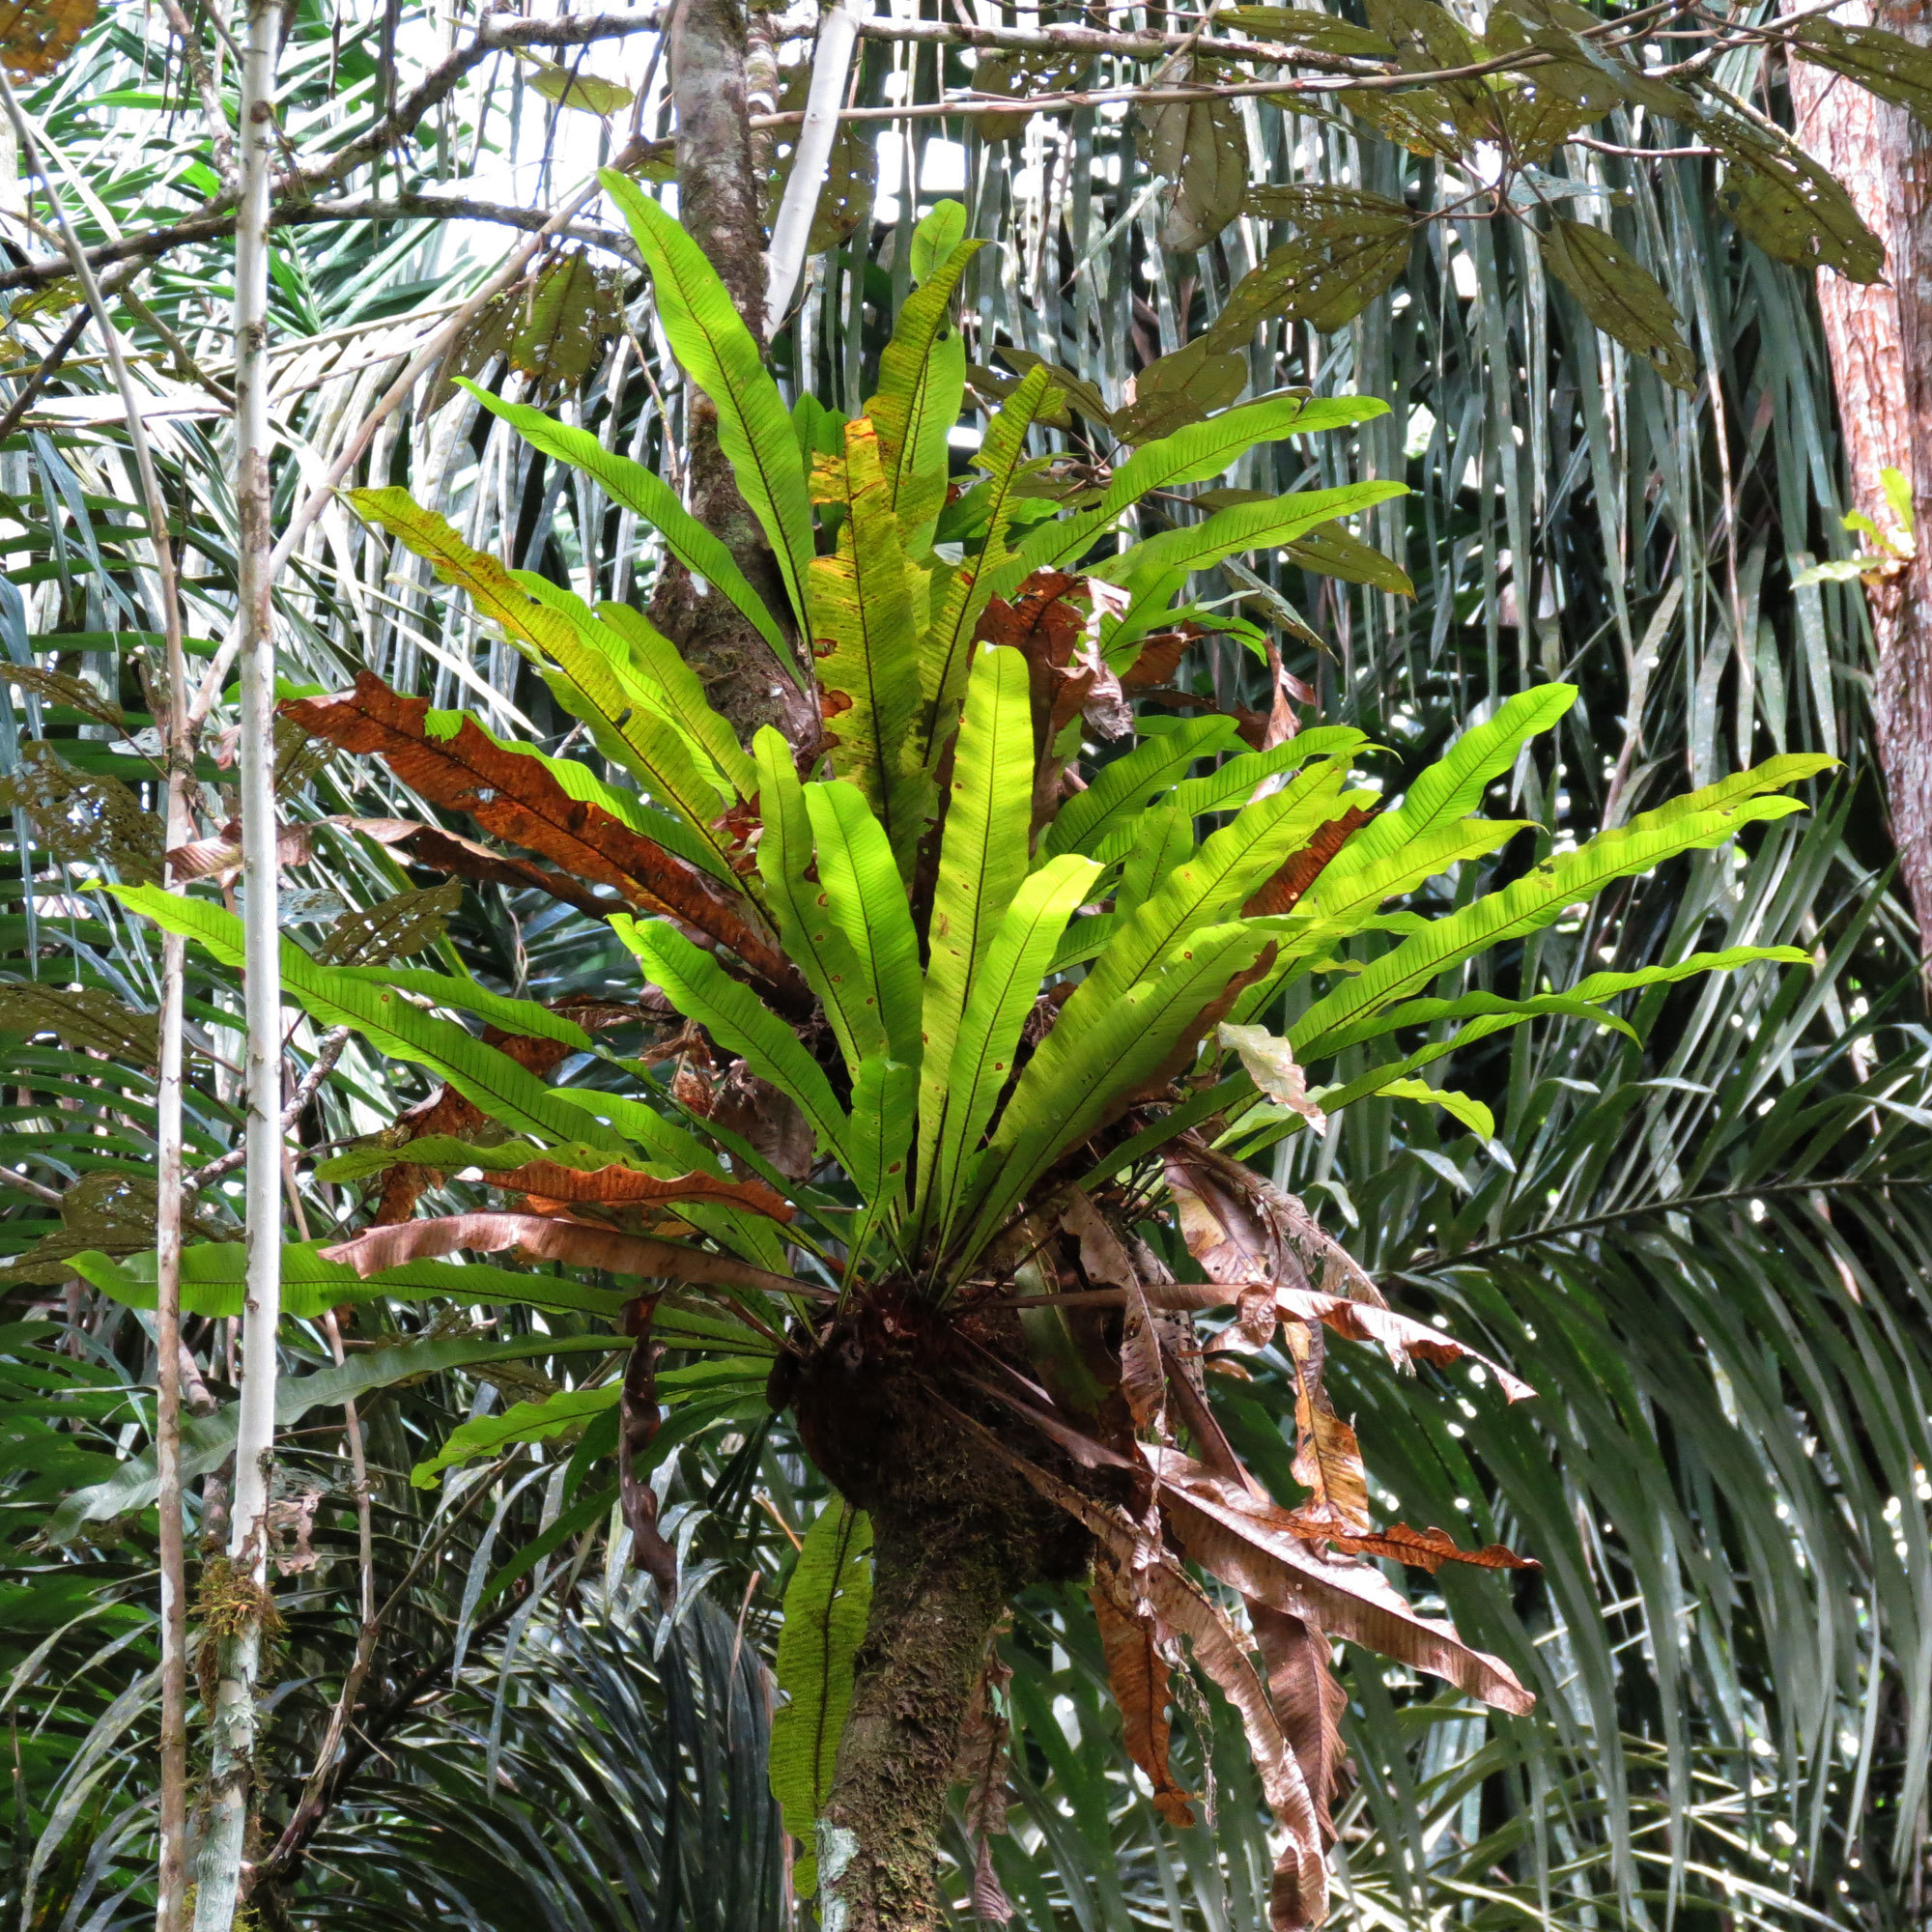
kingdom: Plantae
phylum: Tracheophyta
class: Polypodiopsida
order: Polypodiales
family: Polypodiaceae
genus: Niphidium
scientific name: Niphidium crassifolium
